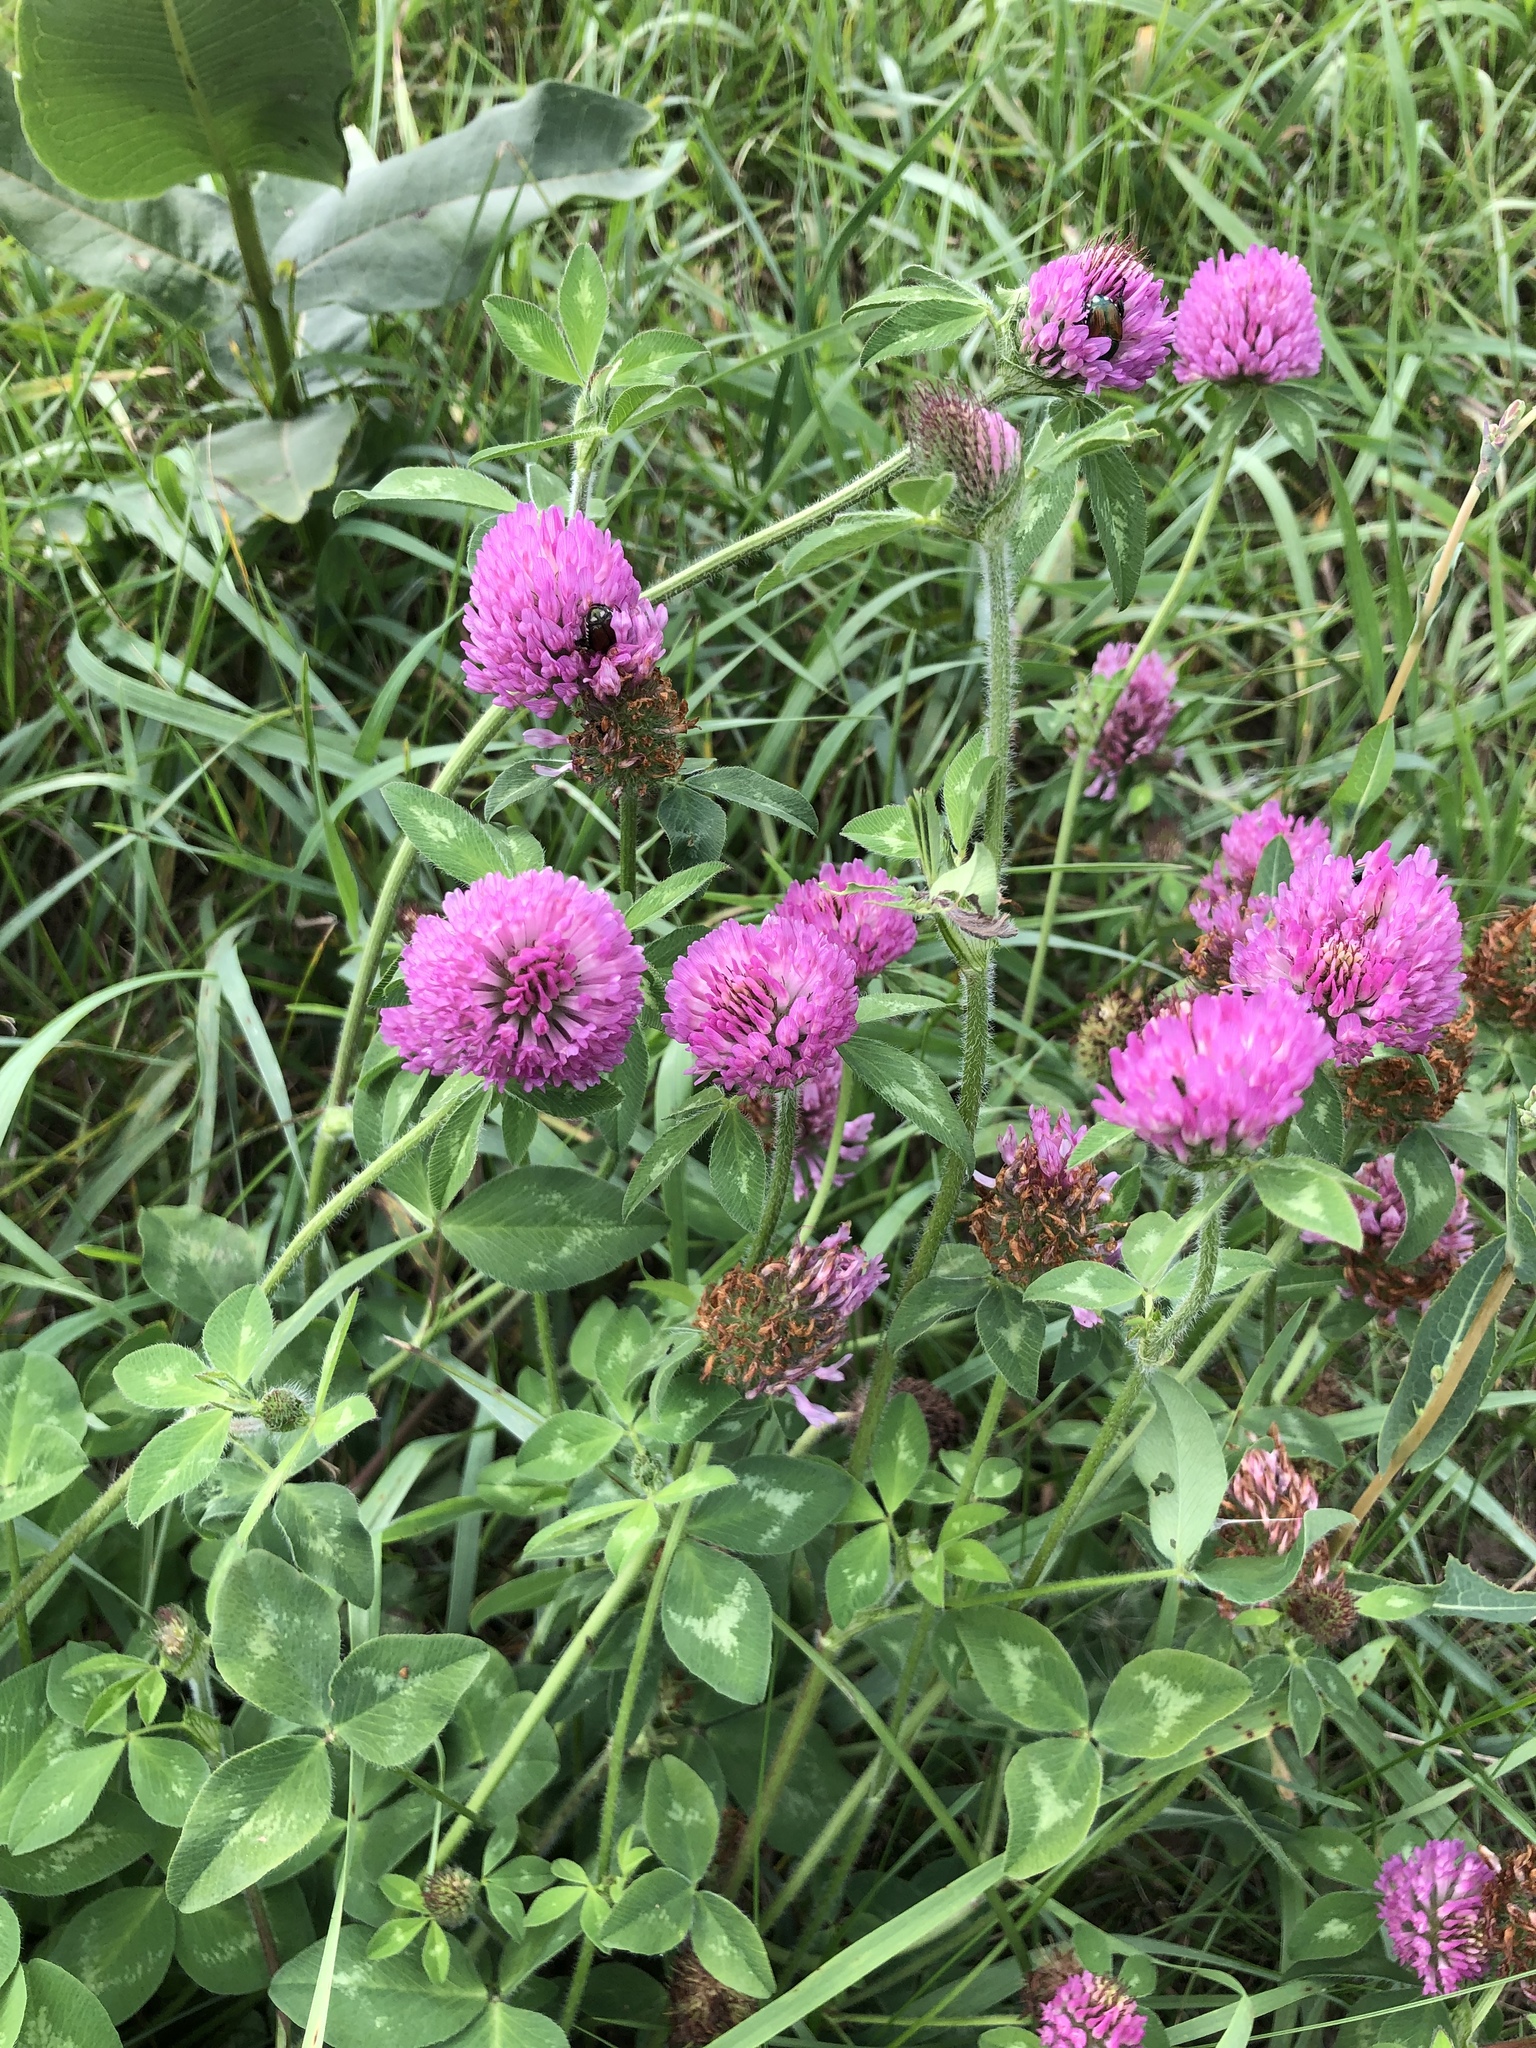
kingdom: Plantae
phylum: Tracheophyta
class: Magnoliopsida
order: Fabales
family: Fabaceae
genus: Trifolium
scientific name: Trifolium pratense
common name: Red clover
